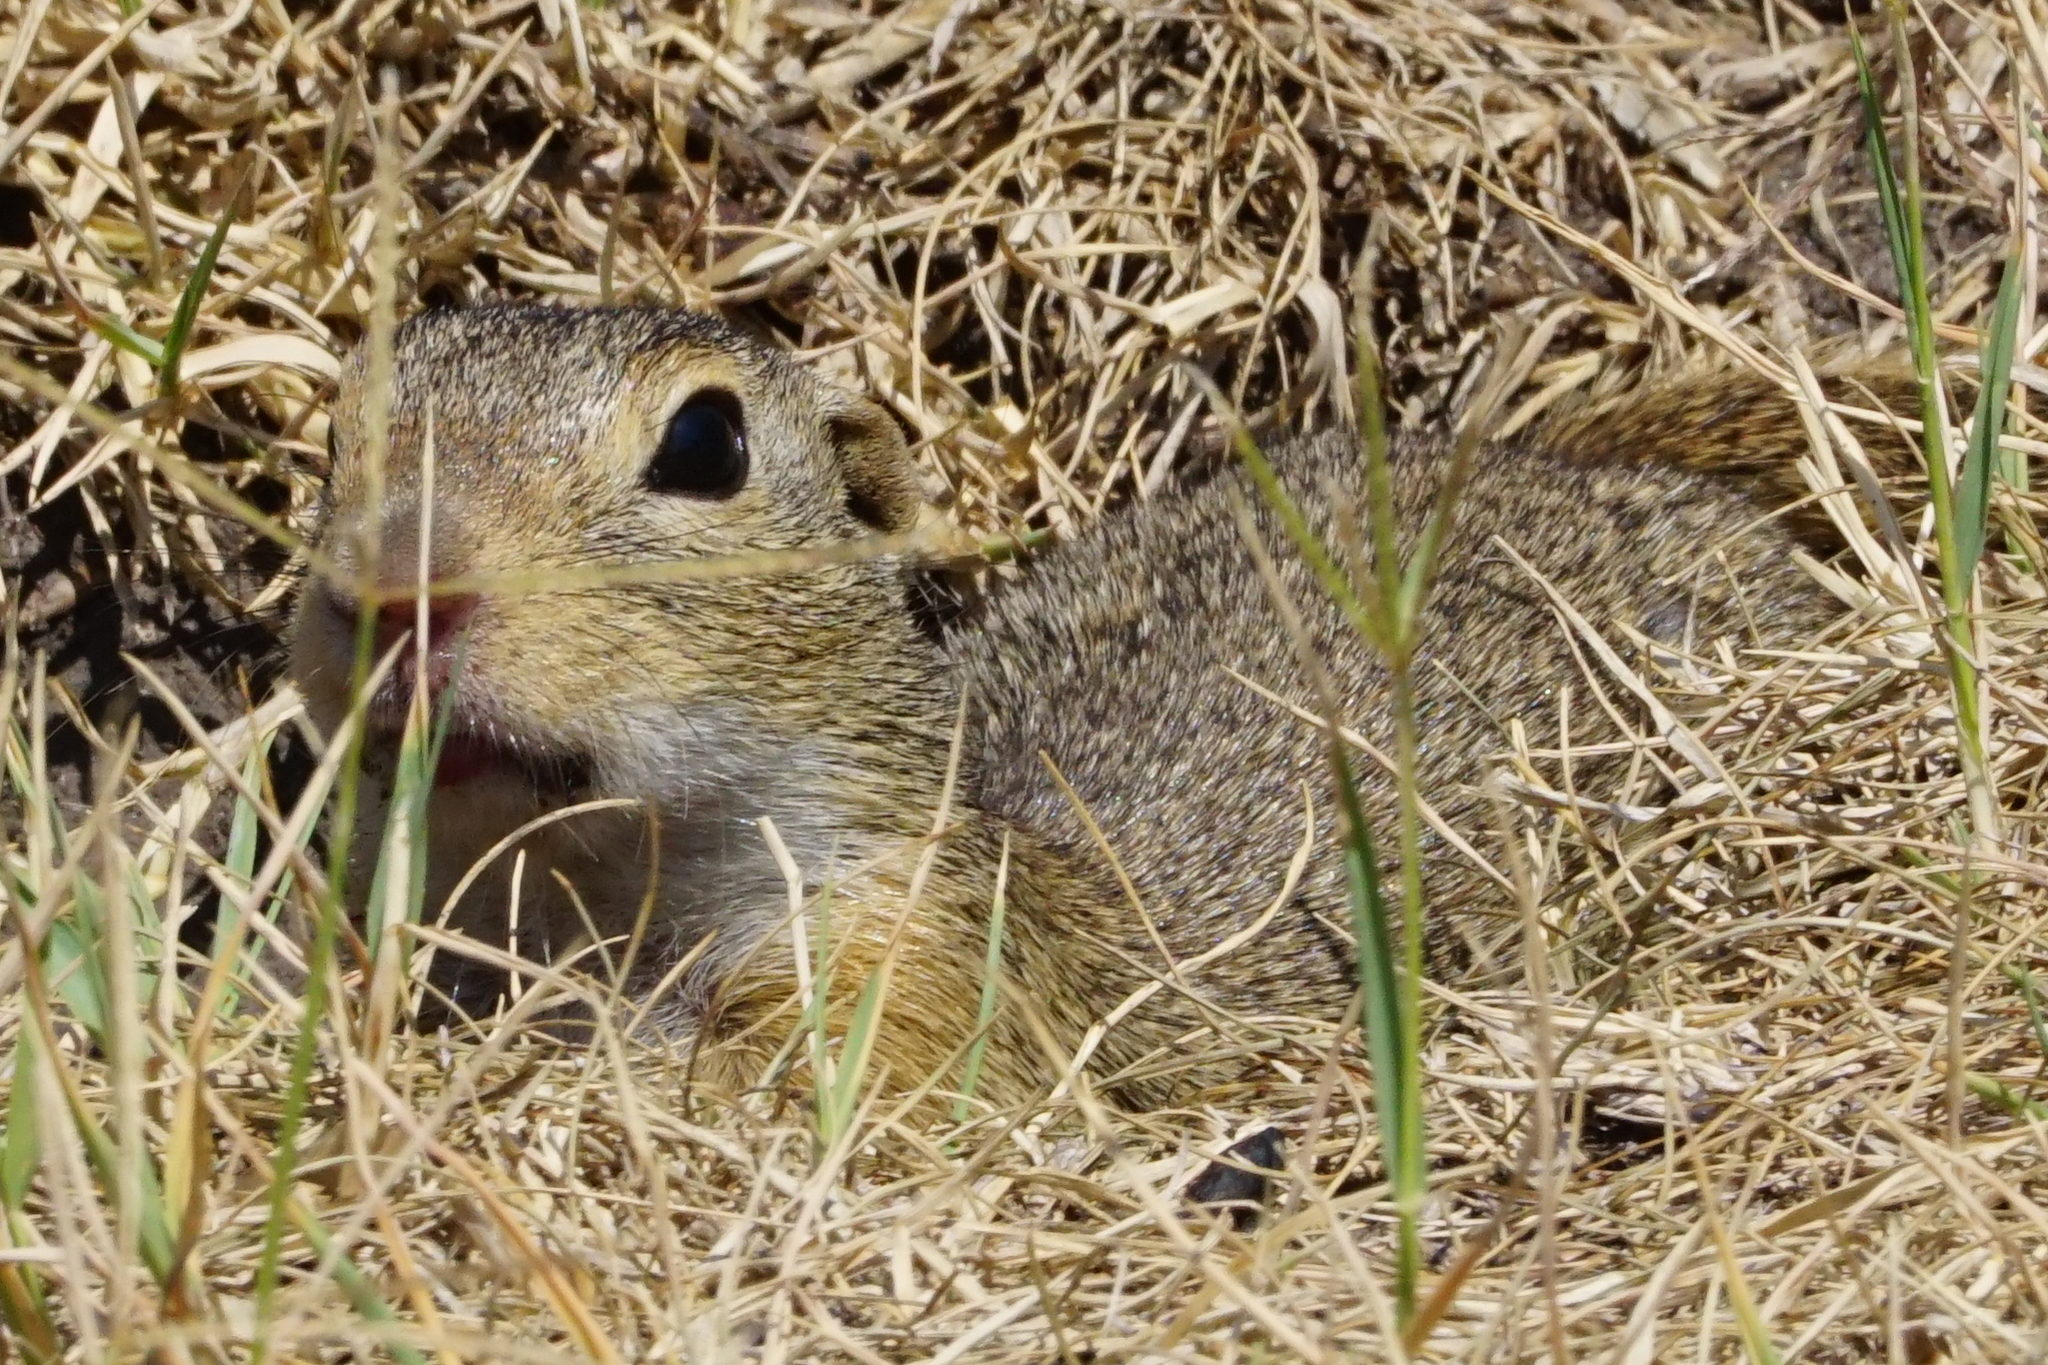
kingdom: Animalia
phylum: Chordata
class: Mammalia
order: Rodentia
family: Sciuridae
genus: Spermophilus
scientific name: Spermophilus citellus
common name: European ground squirrel
